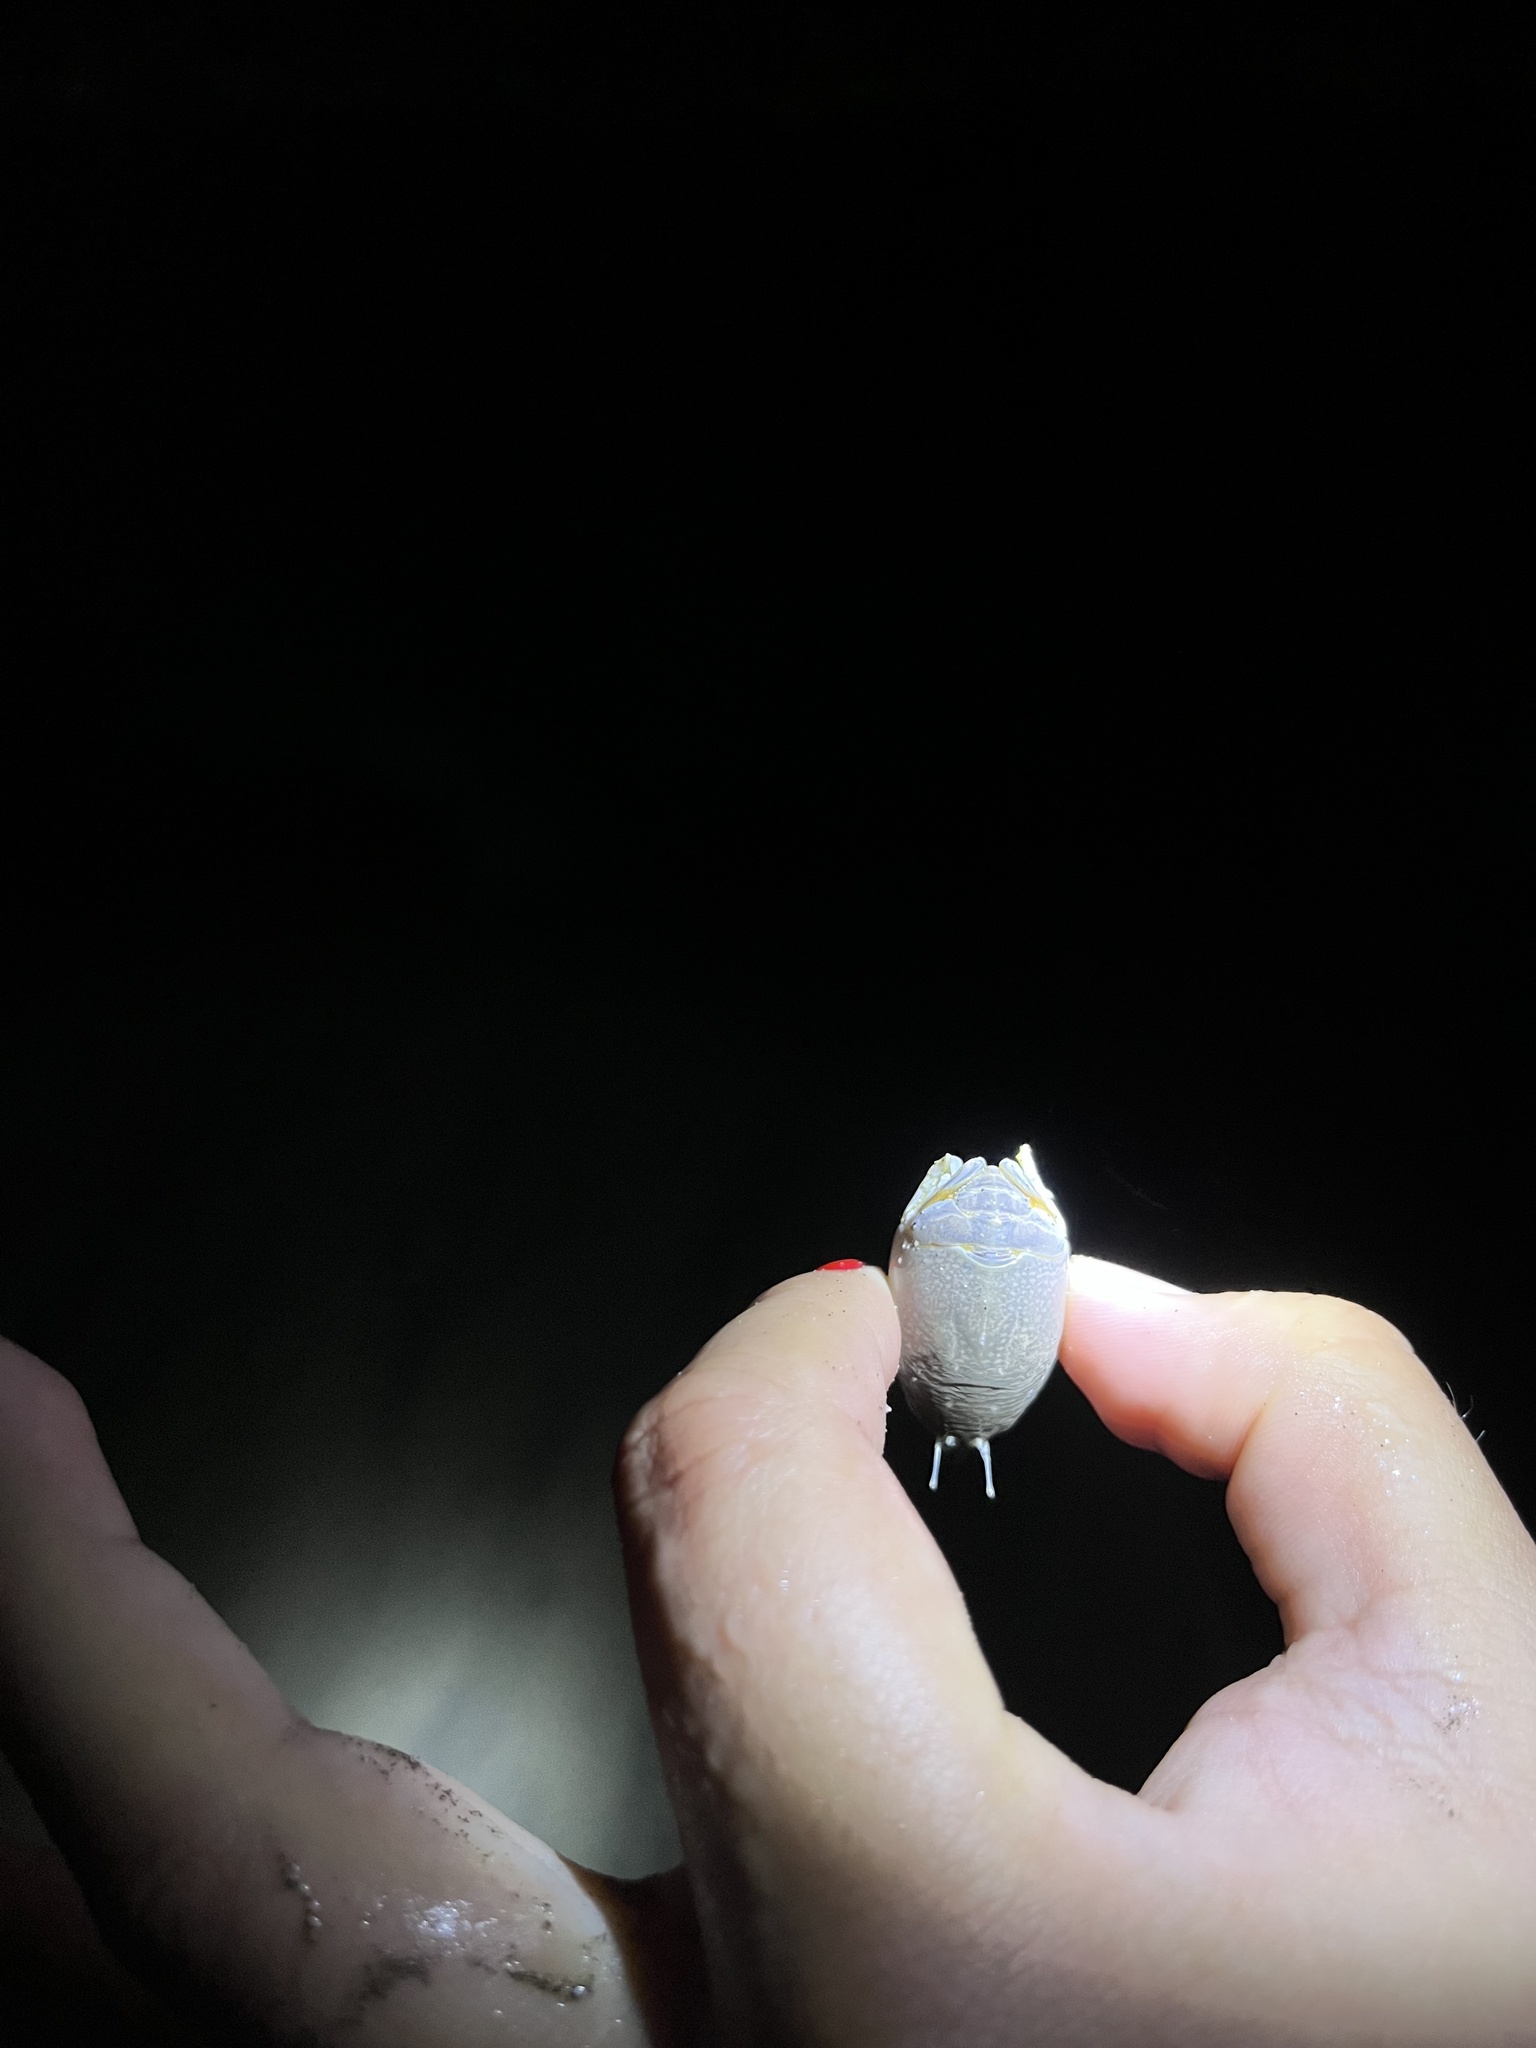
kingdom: Animalia
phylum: Arthropoda
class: Malacostraca
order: Decapoda
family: Hippidae
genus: Emerita
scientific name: Emerita analoga
